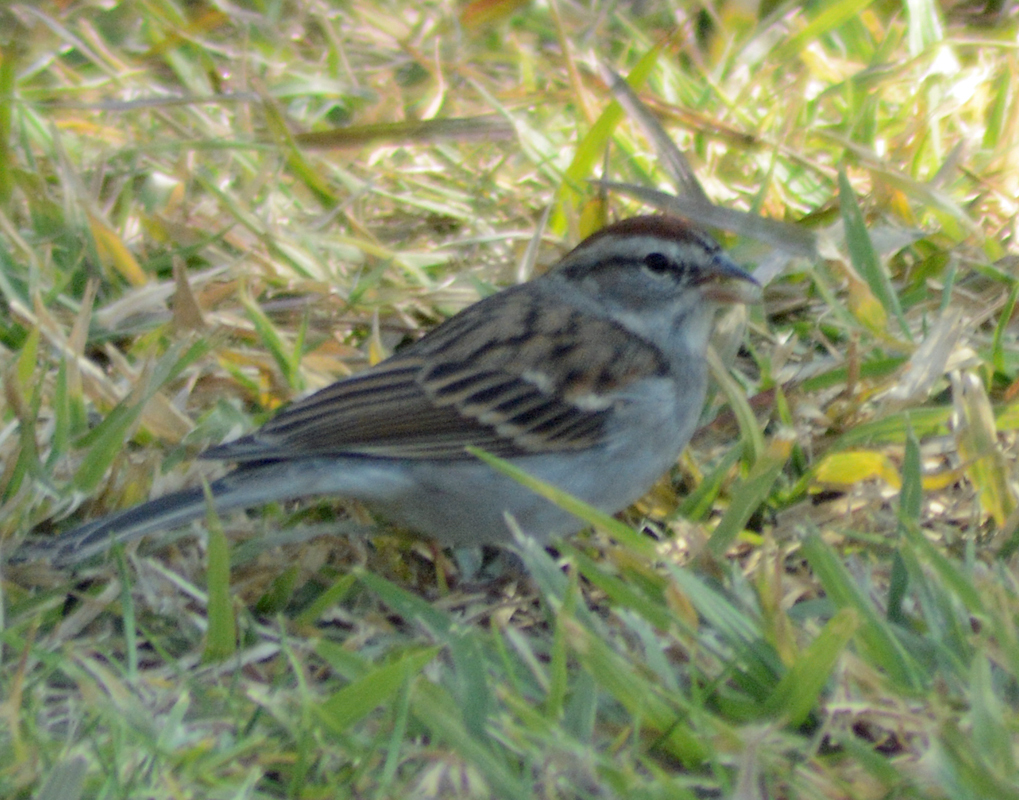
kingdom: Animalia
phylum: Chordata
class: Aves
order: Passeriformes
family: Passerellidae
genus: Spizella
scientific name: Spizella passerina
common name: Chipping sparrow
